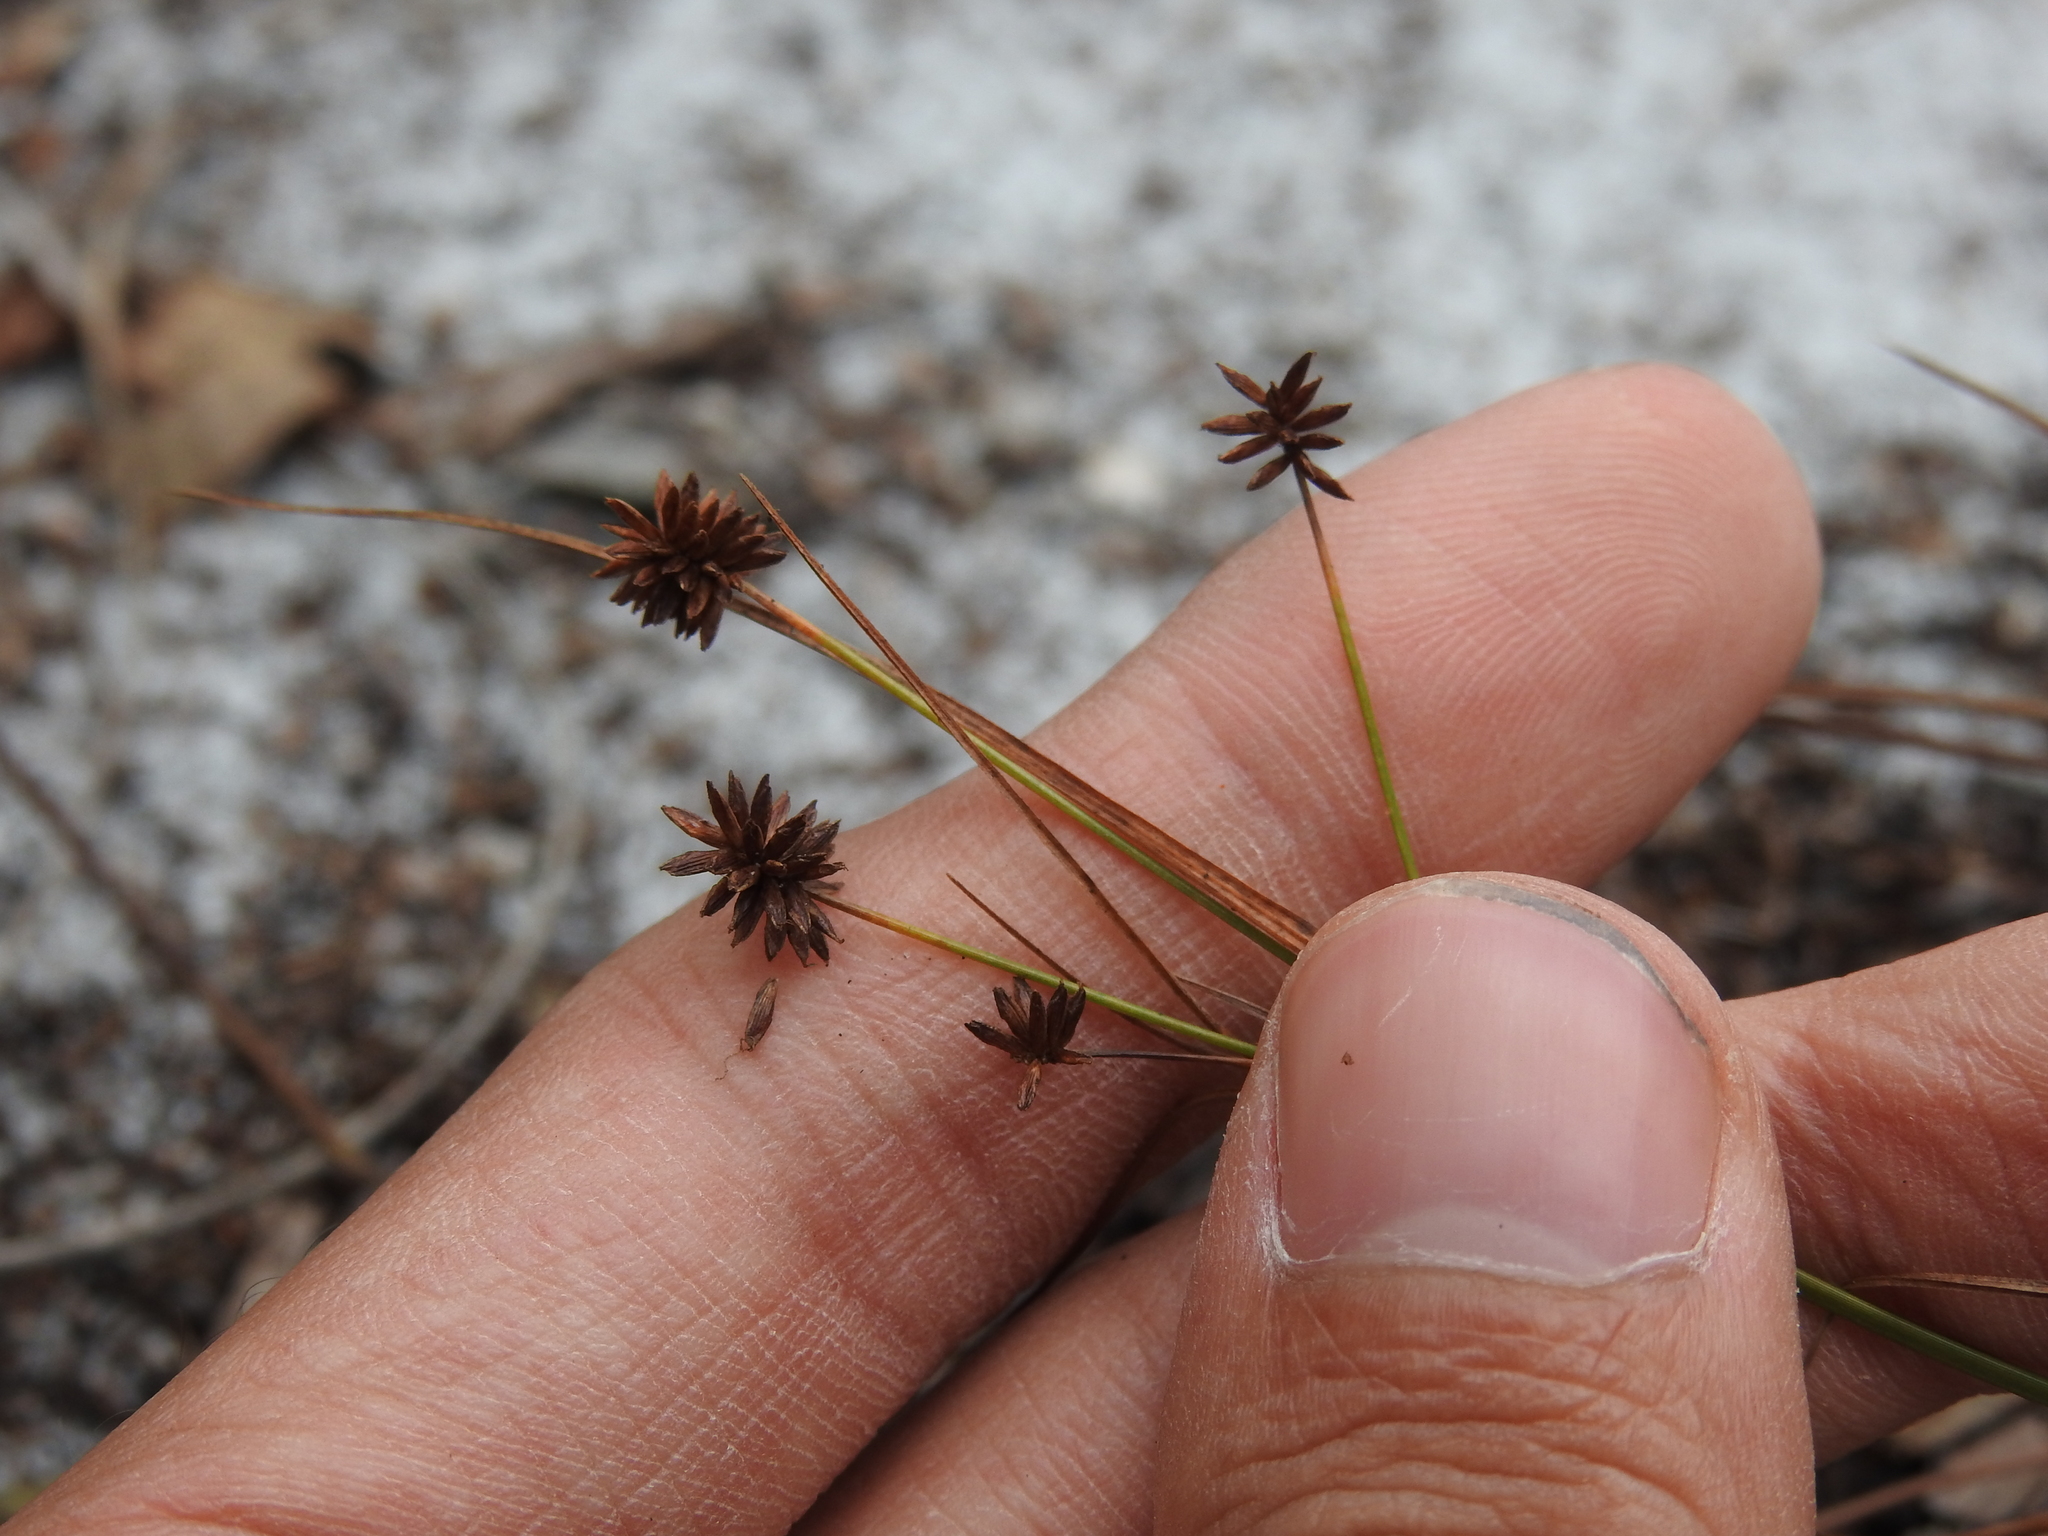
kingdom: Plantae
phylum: Tracheophyta
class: Liliopsida
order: Poales
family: Cyperaceae
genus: Cyperus
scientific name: Cyperus retrorsus
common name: Pinebarren flat sedge
